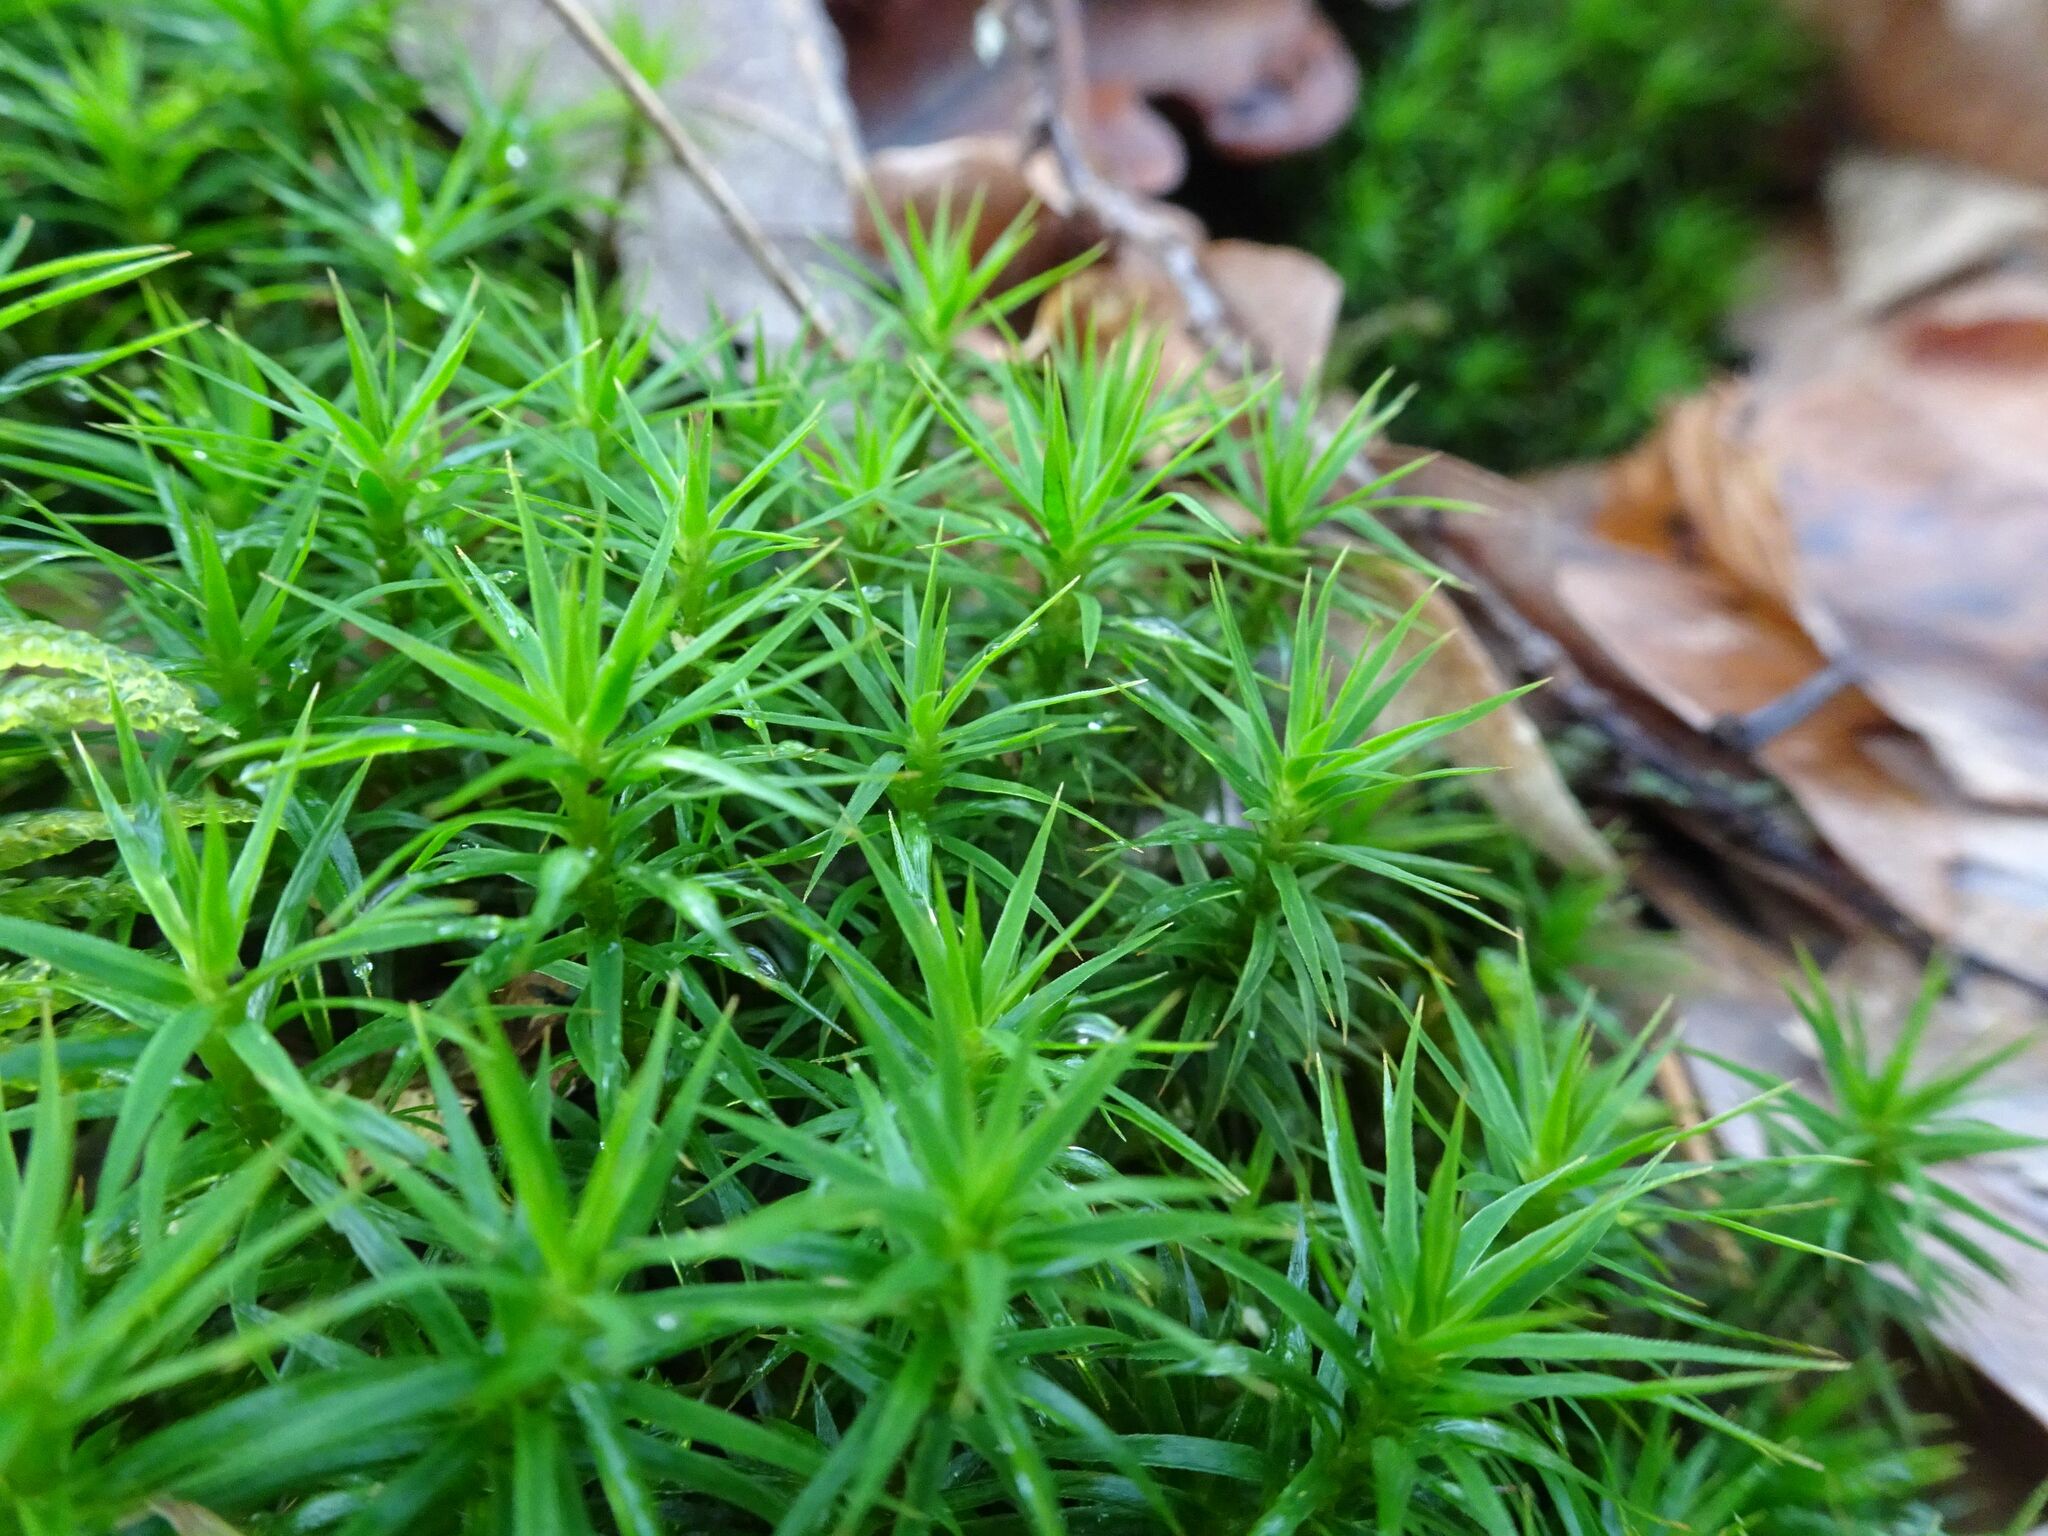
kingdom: Plantae
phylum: Bryophyta
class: Polytrichopsida
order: Polytrichales
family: Polytrichaceae
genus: Polytrichum
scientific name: Polytrichum formosum
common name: Bank haircap moss
